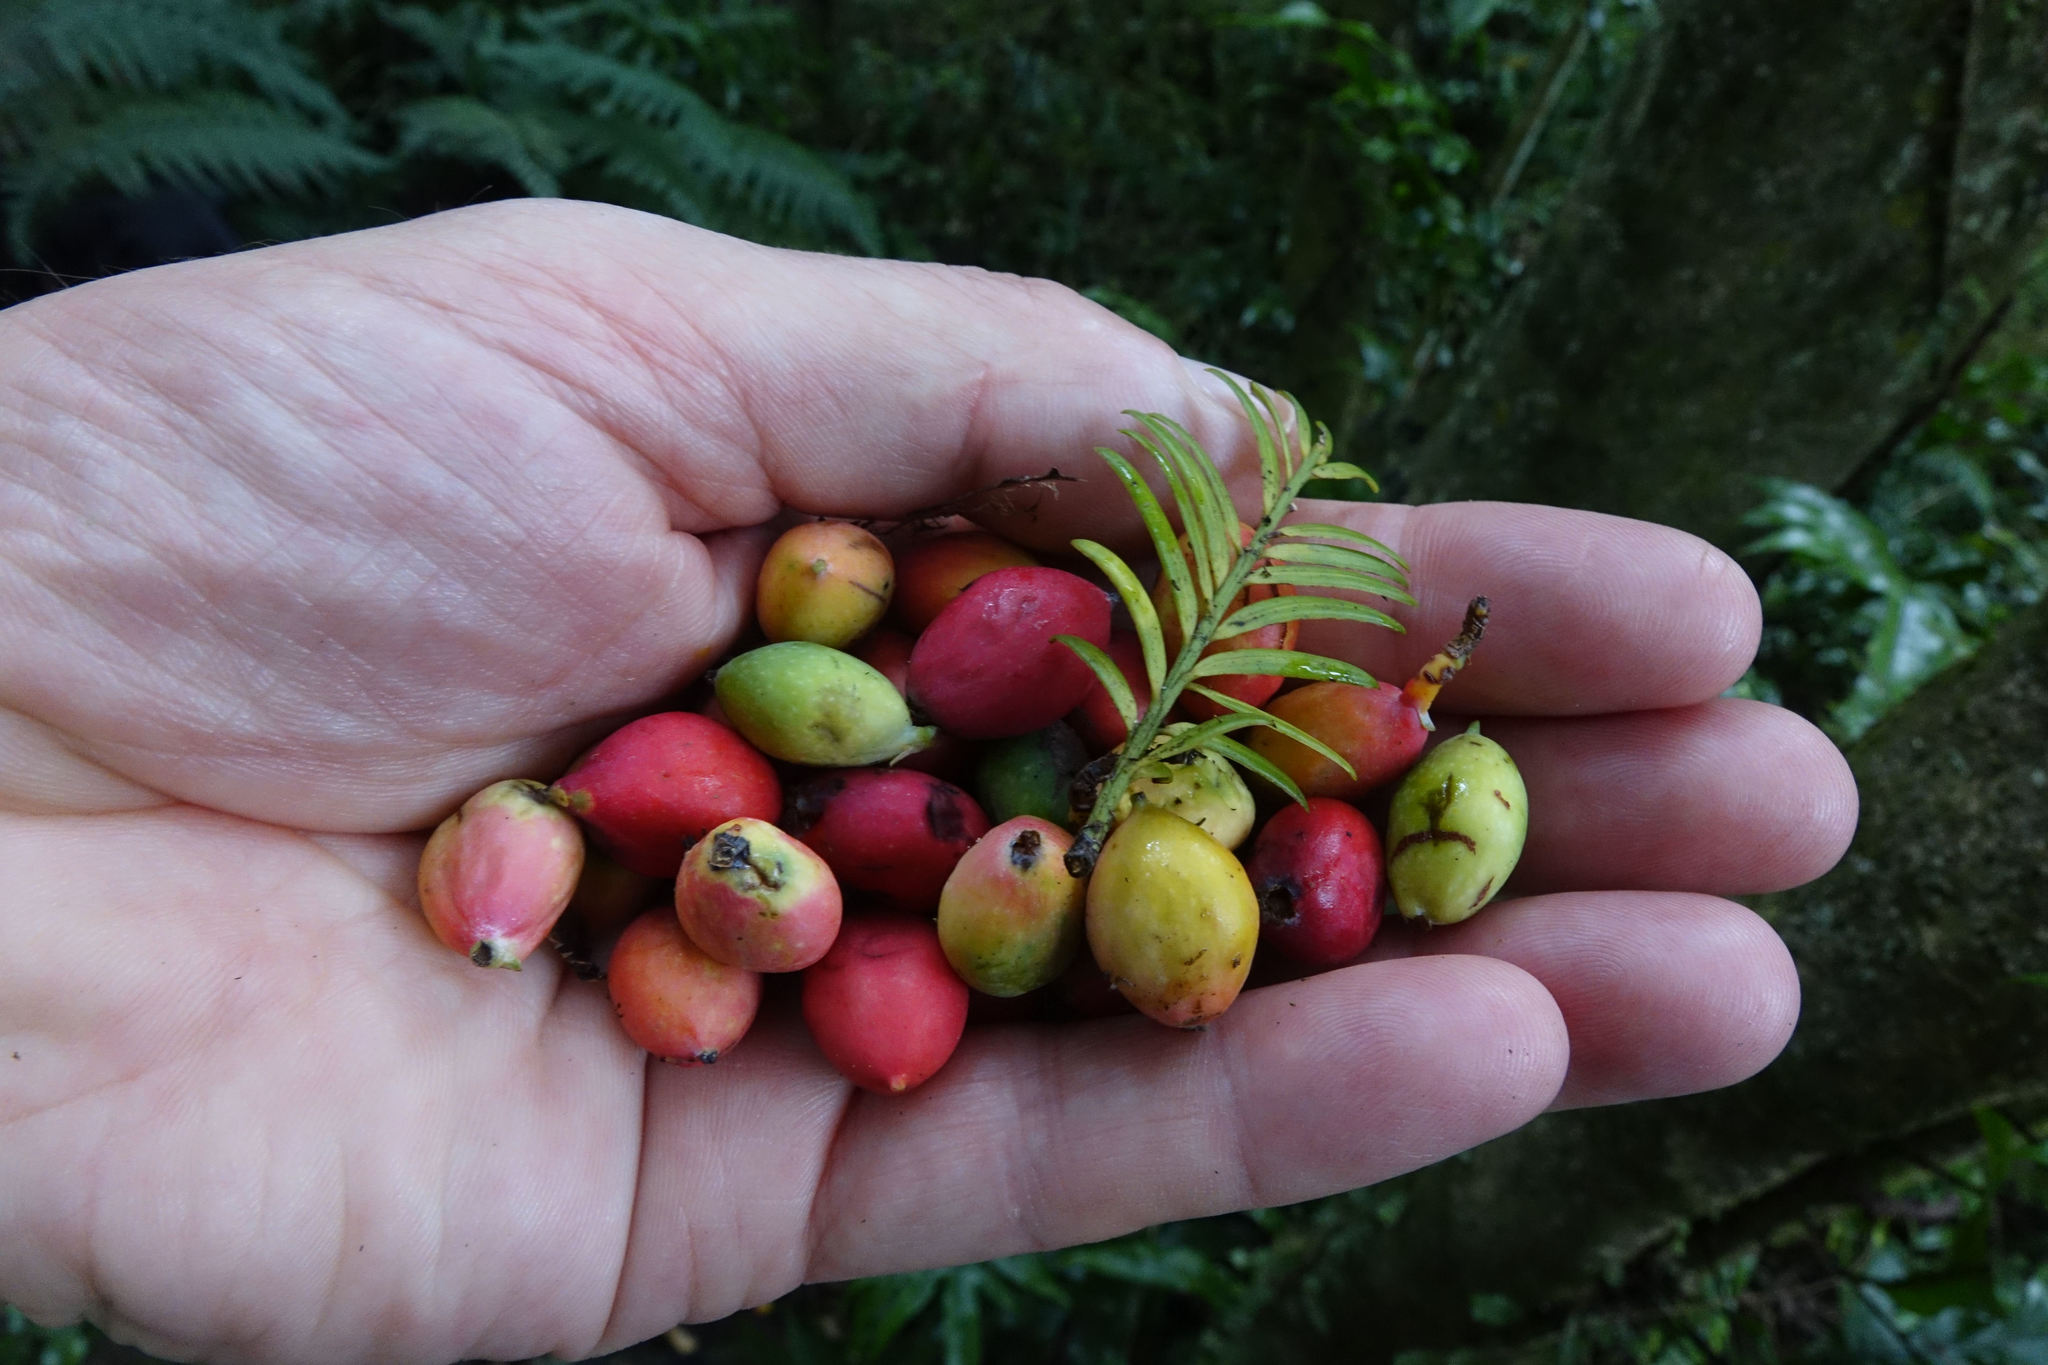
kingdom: Plantae
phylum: Tracheophyta
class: Pinopsida
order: Pinales
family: Podocarpaceae
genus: Prumnopitys
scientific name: Prumnopitys ferruginea
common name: Brown pine
